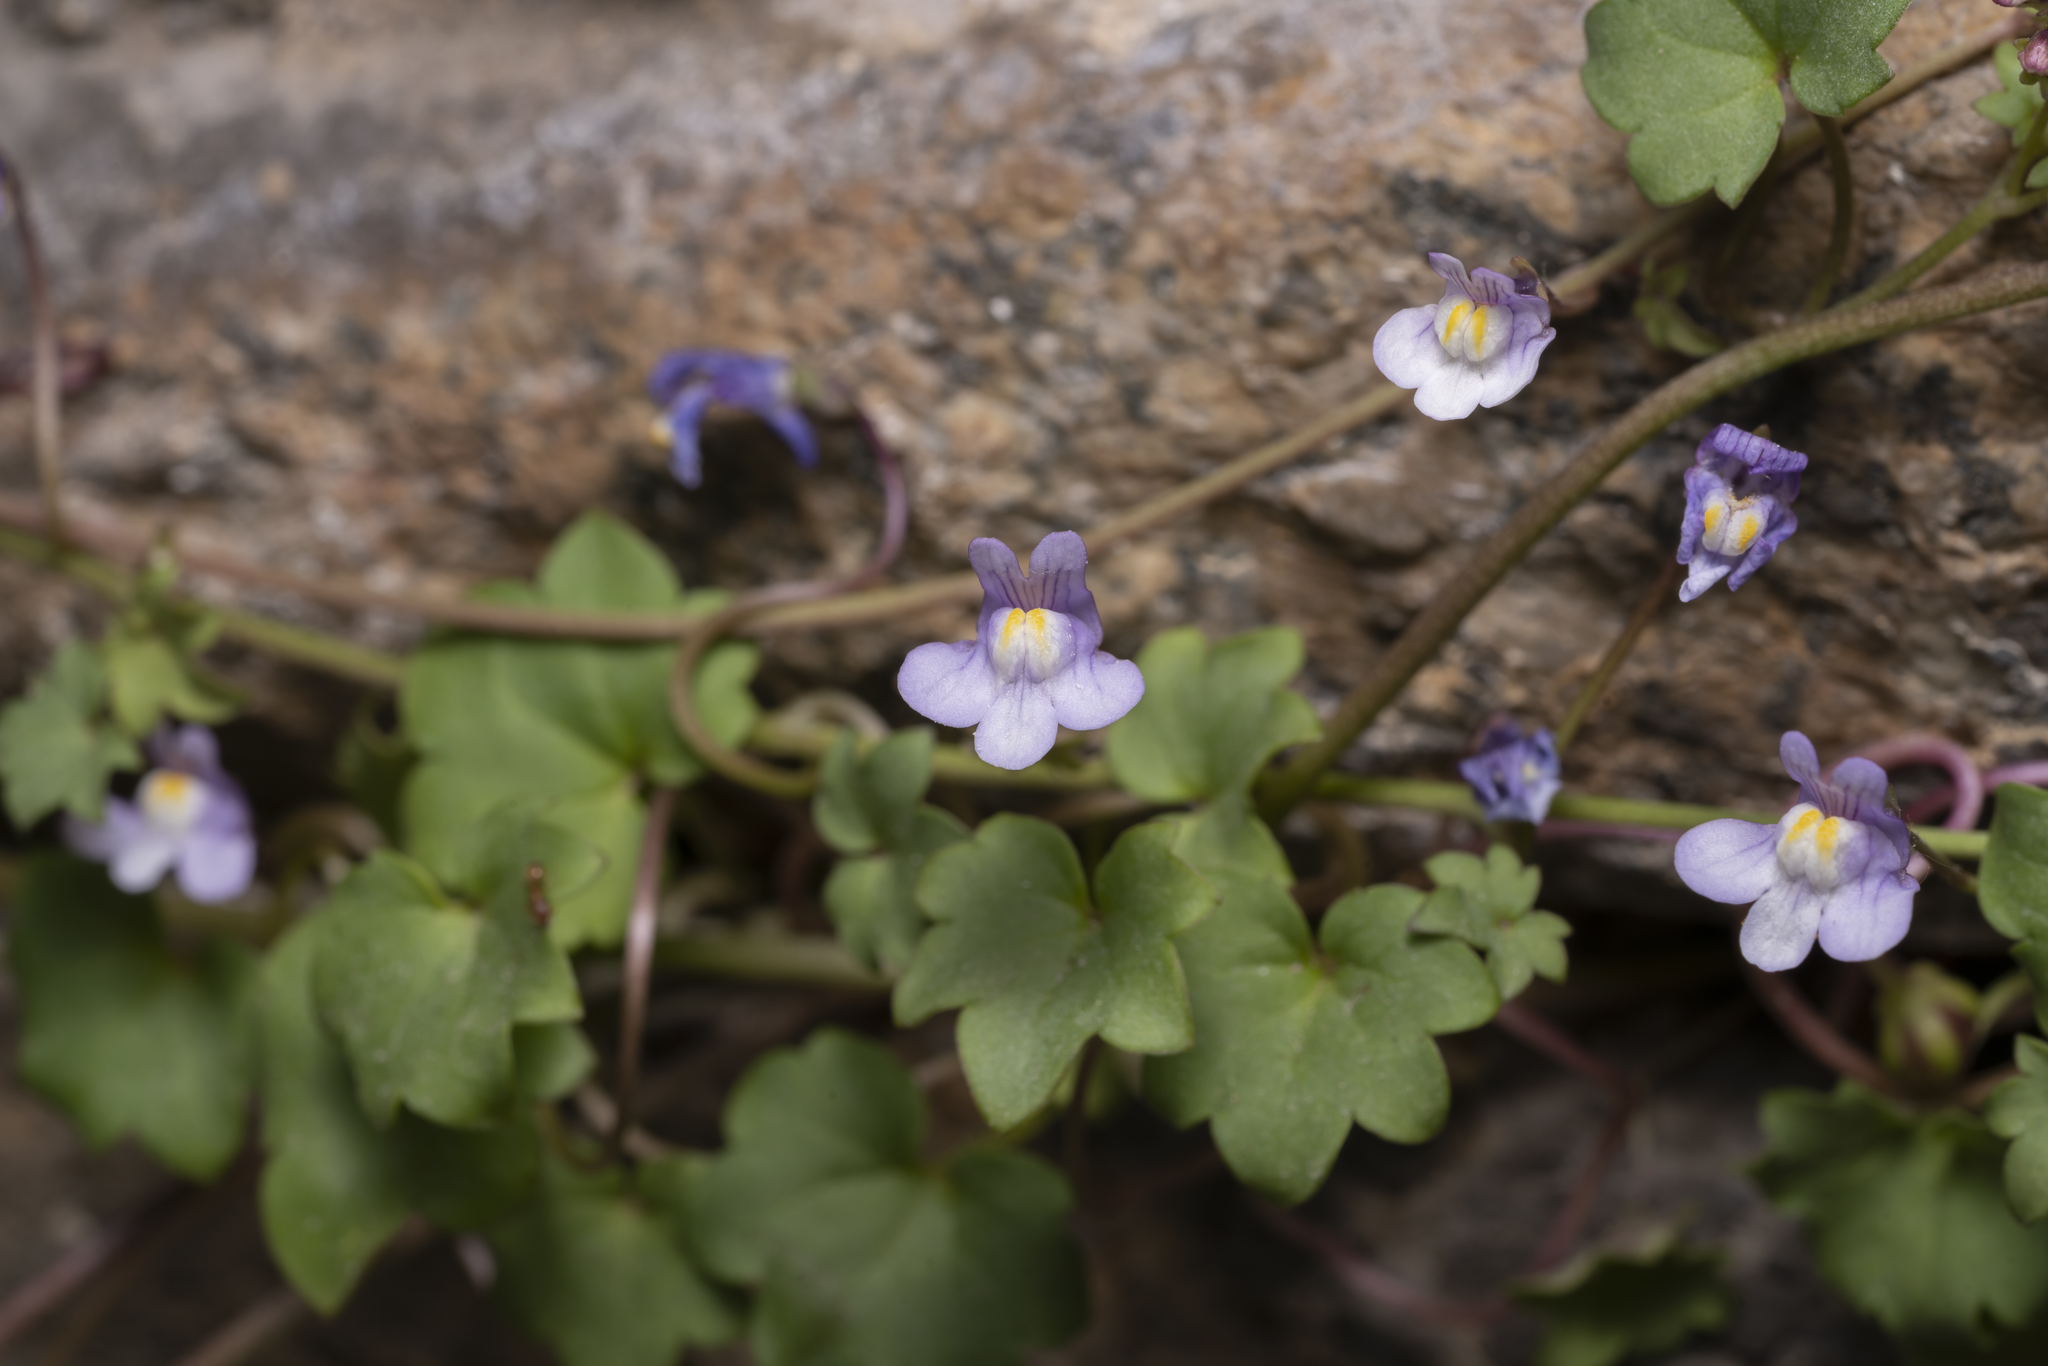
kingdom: Plantae
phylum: Tracheophyta
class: Magnoliopsida
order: Lamiales
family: Plantaginaceae
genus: Cymbalaria
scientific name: Cymbalaria muralis
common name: Ivy-leaved toadflax
